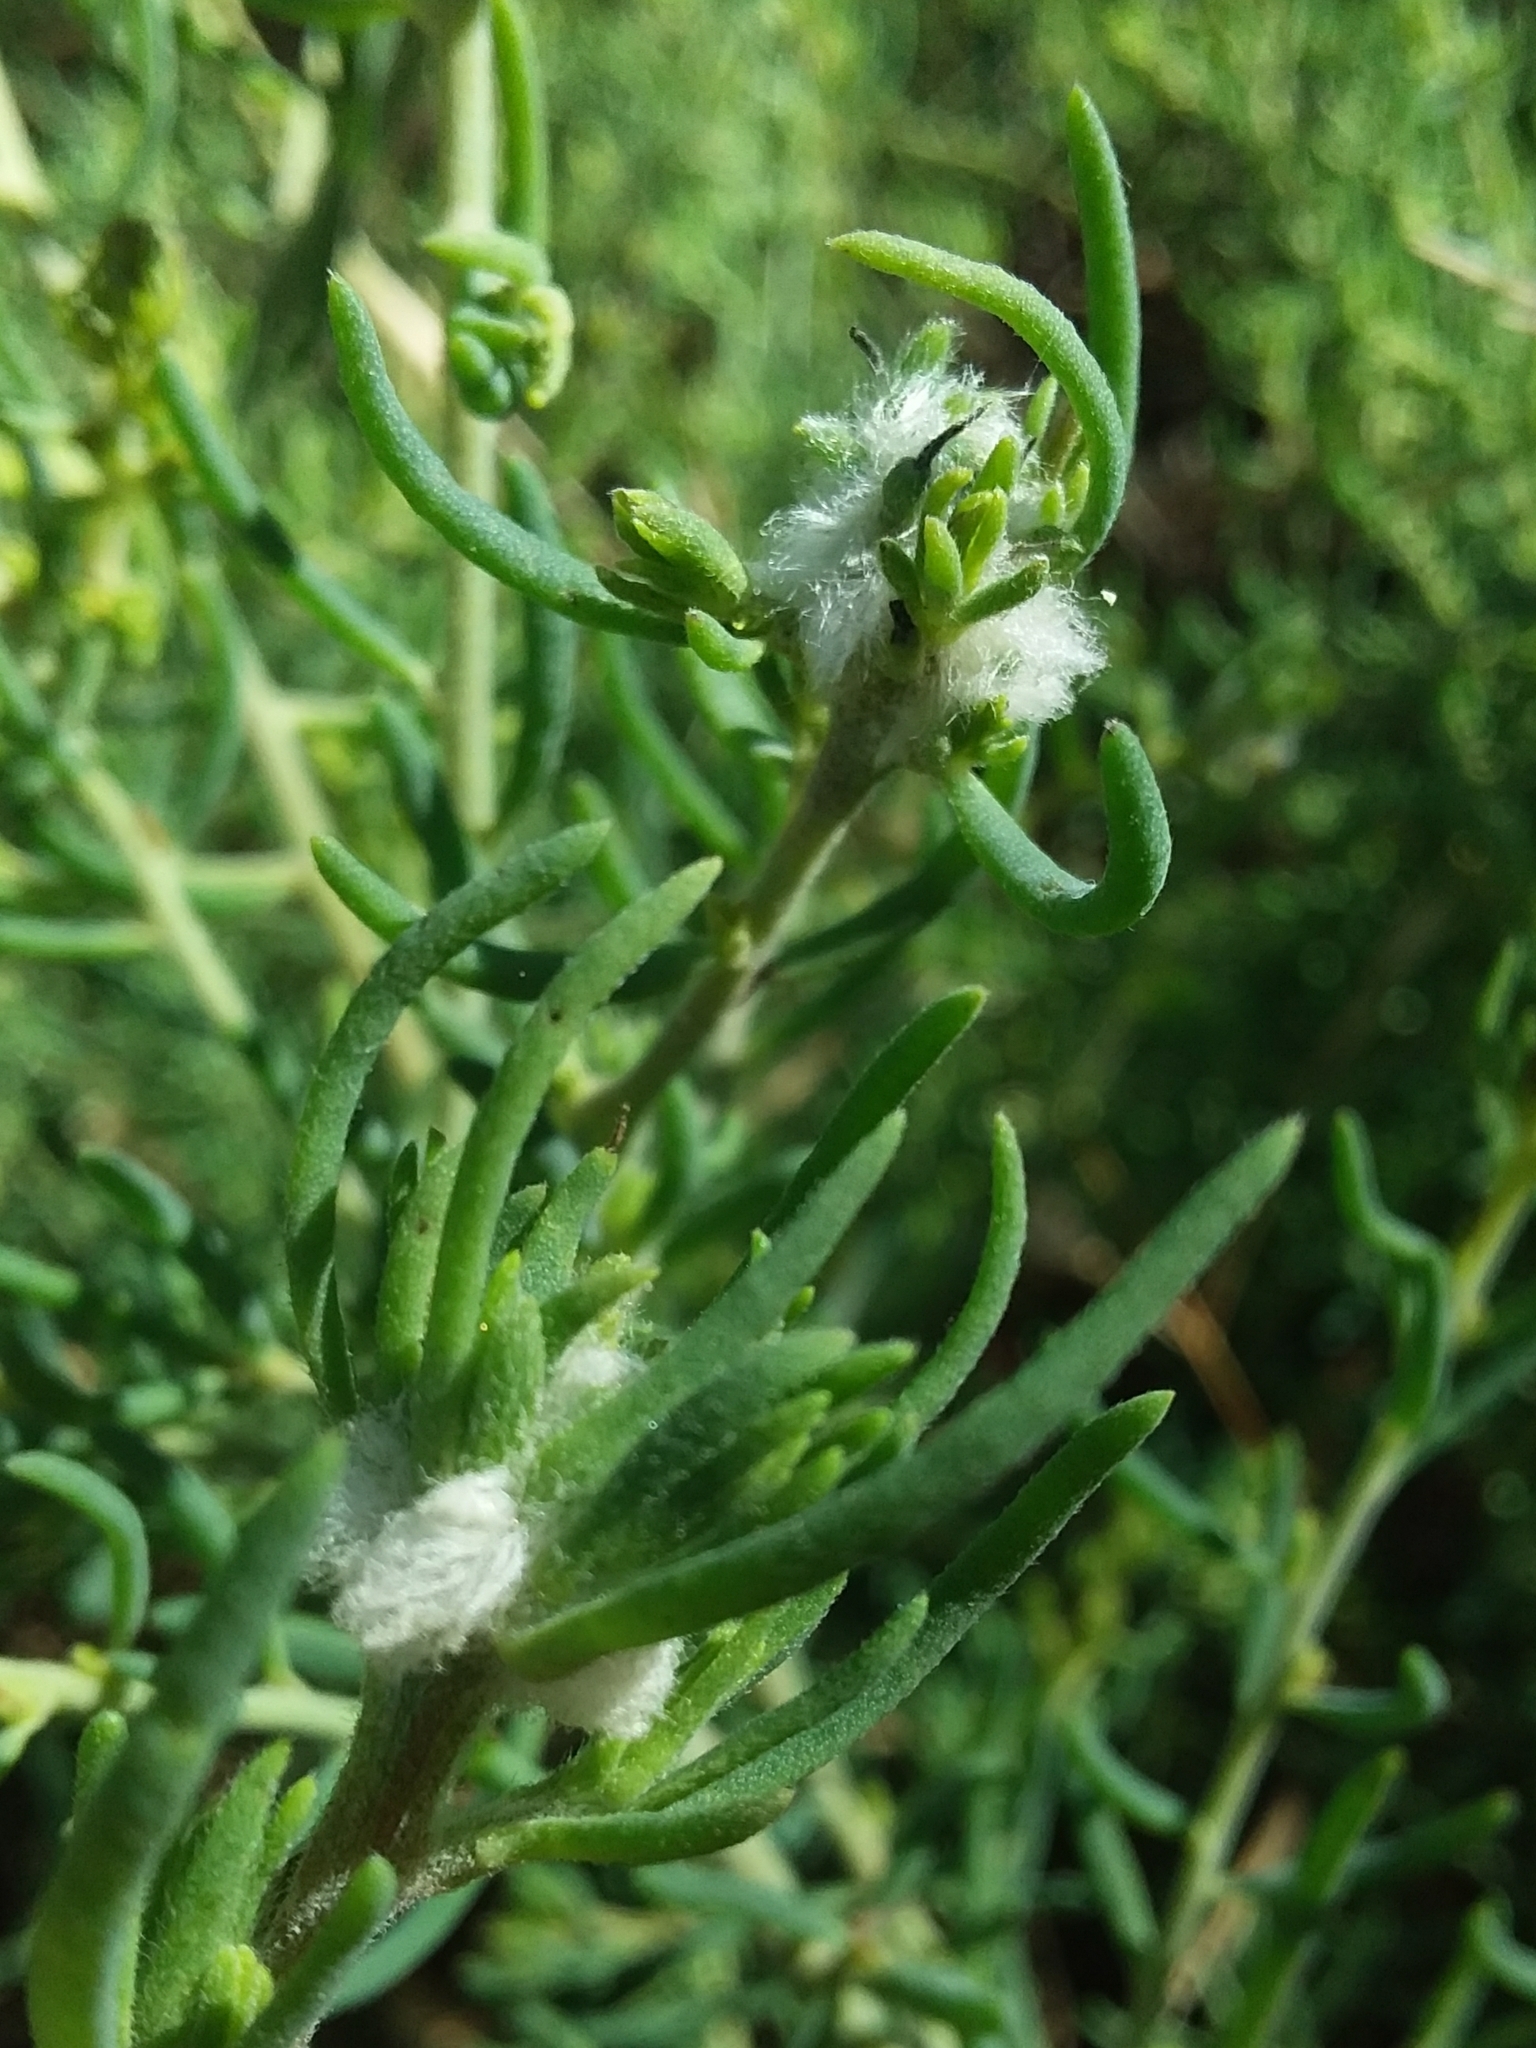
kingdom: Animalia
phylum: Arthropoda
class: Insecta
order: Diptera
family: Cecidomyiidae
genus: Asphondylia
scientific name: Asphondylia tonsura
